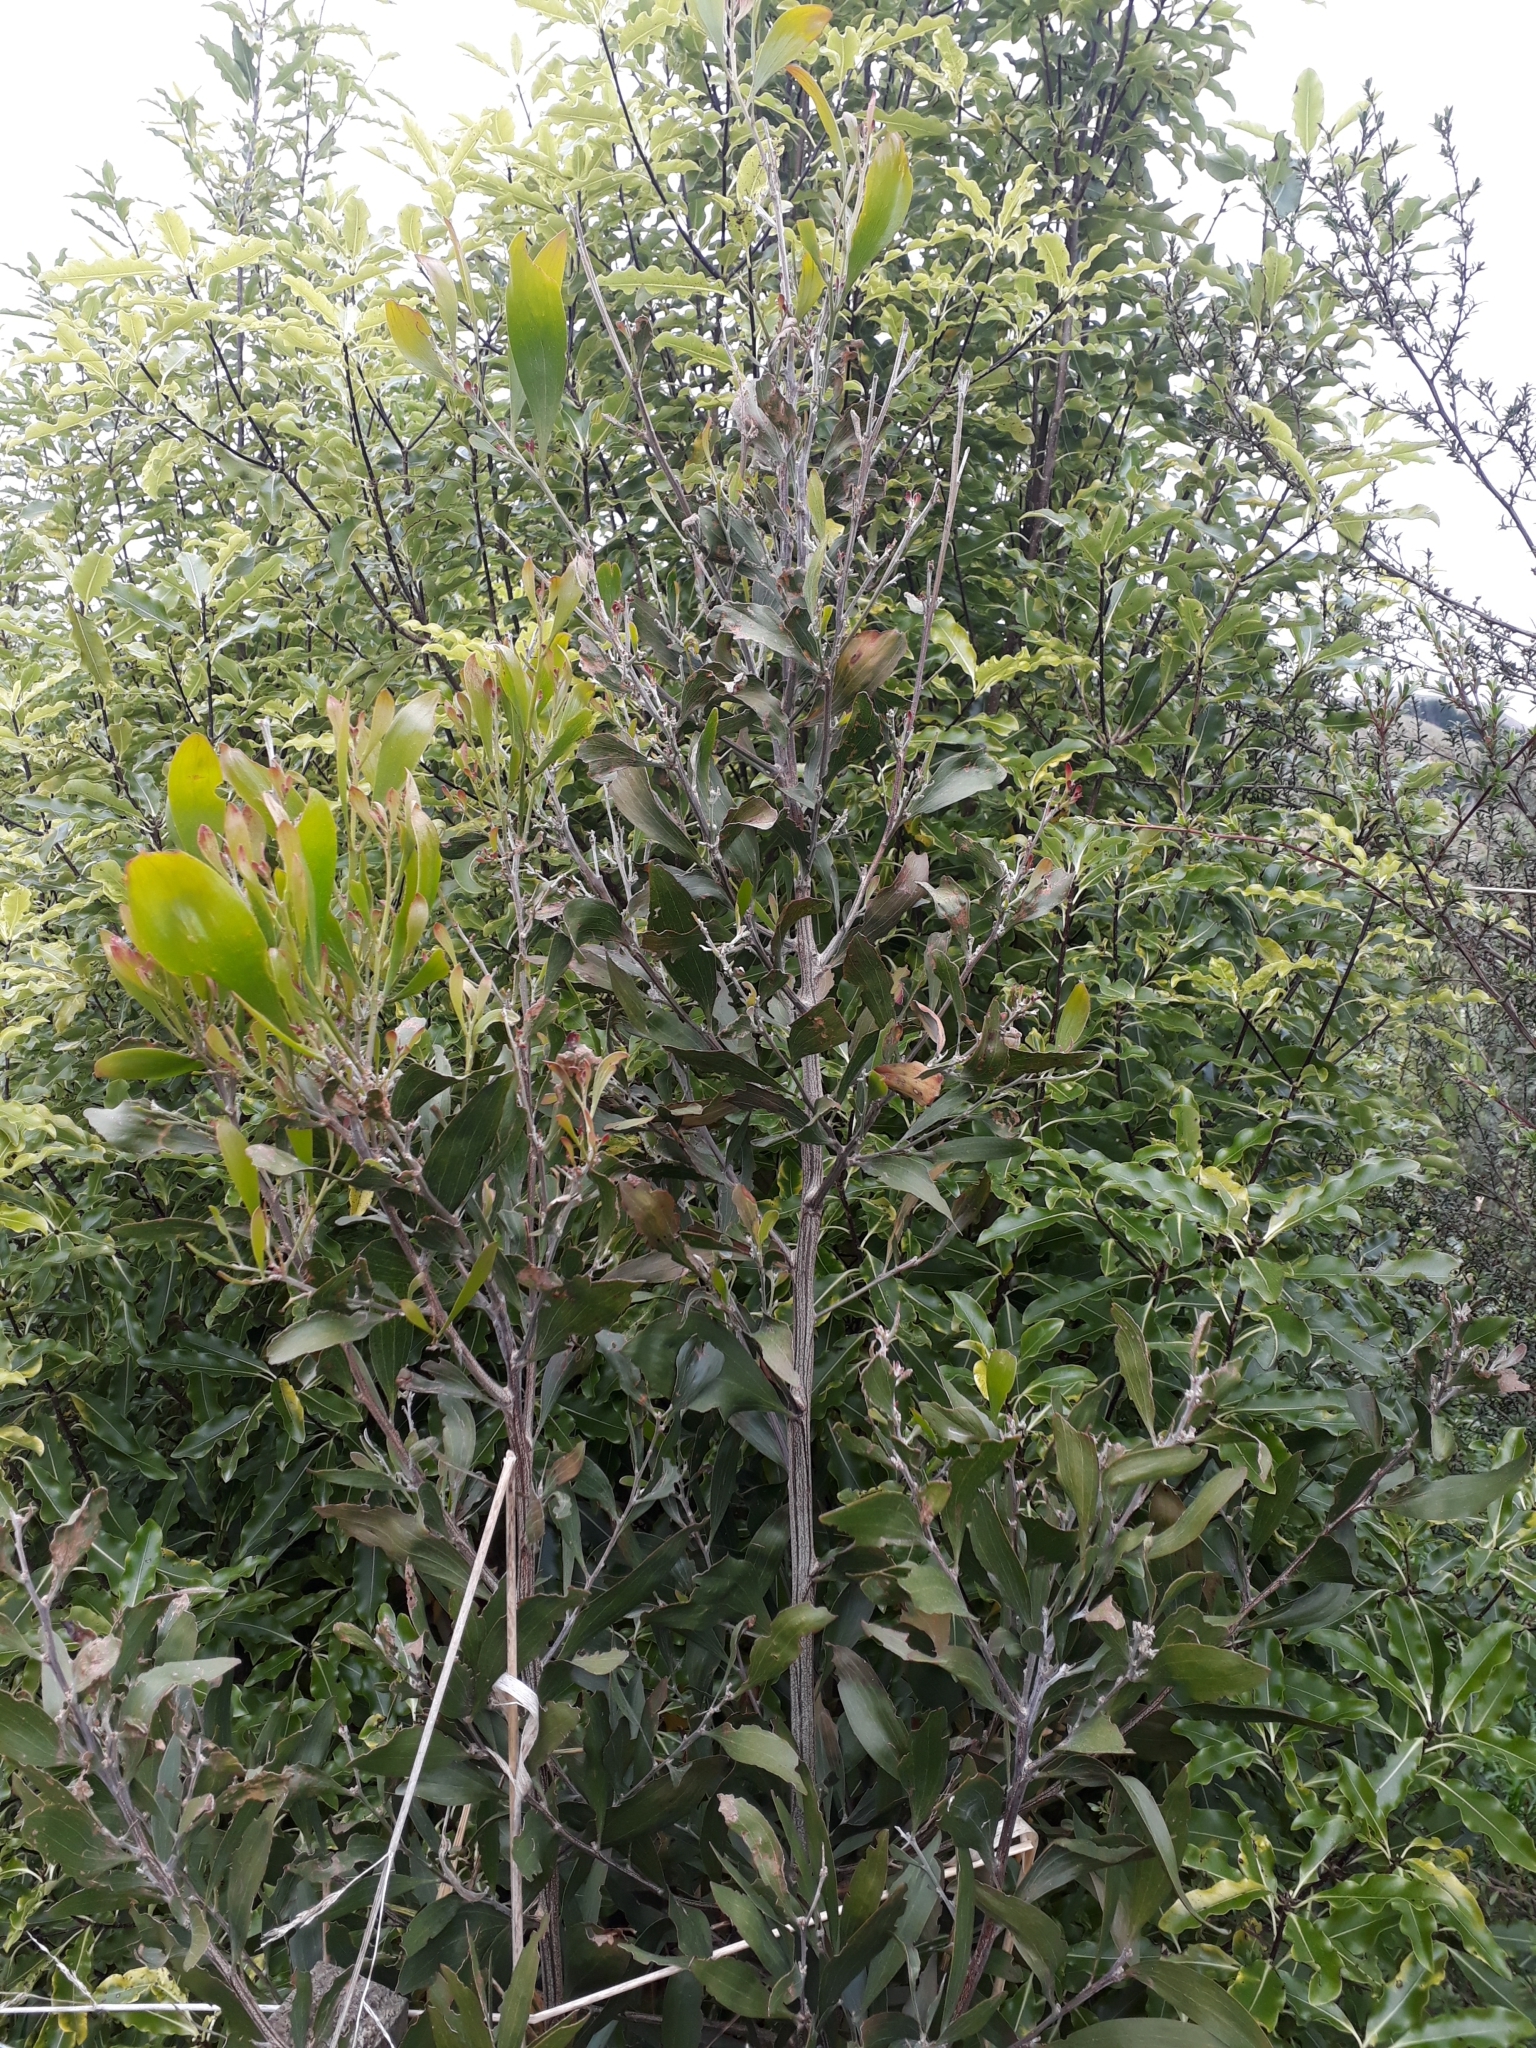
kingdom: Plantae
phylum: Tracheophyta
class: Magnoliopsida
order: Fabales
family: Fabaceae
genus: Acacia
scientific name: Acacia melanoxylon
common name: Blackwood
